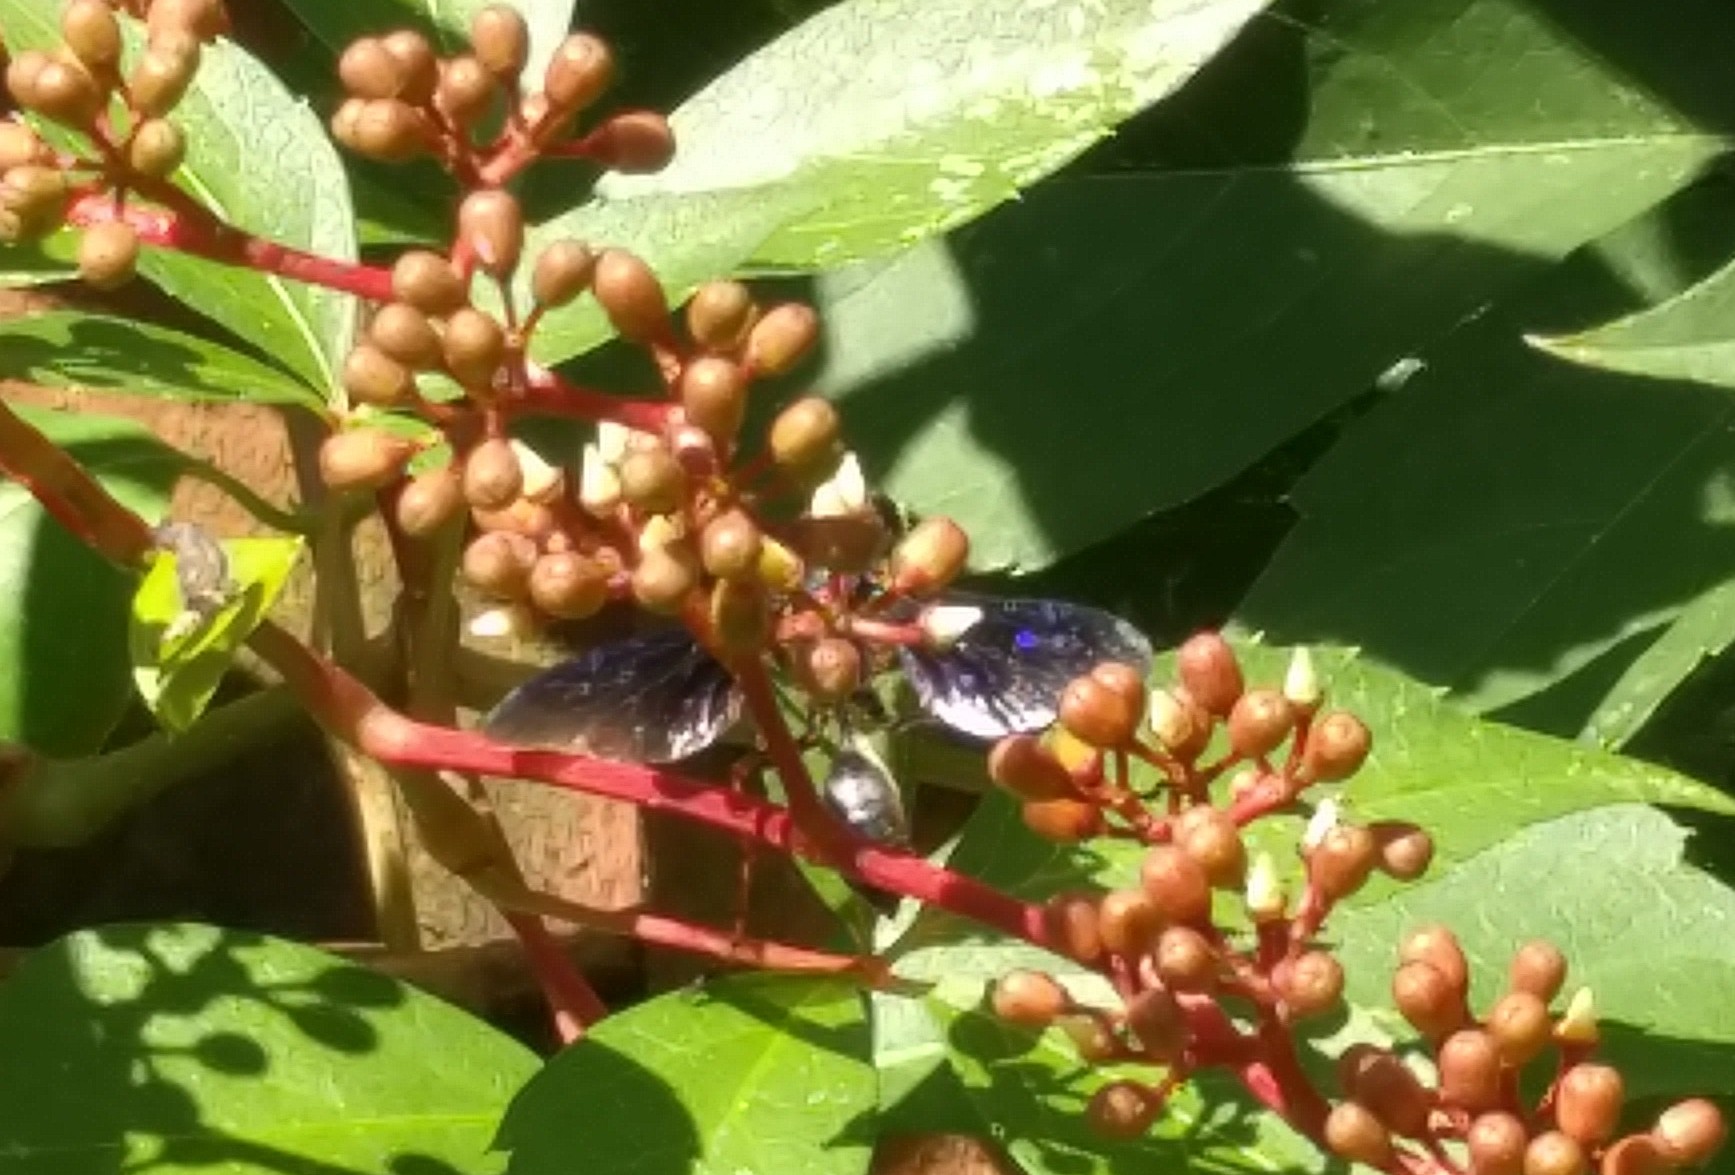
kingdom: Animalia
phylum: Arthropoda
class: Insecta
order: Hymenoptera
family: Sphecidae
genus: Isodontia
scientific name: Isodontia auripes
